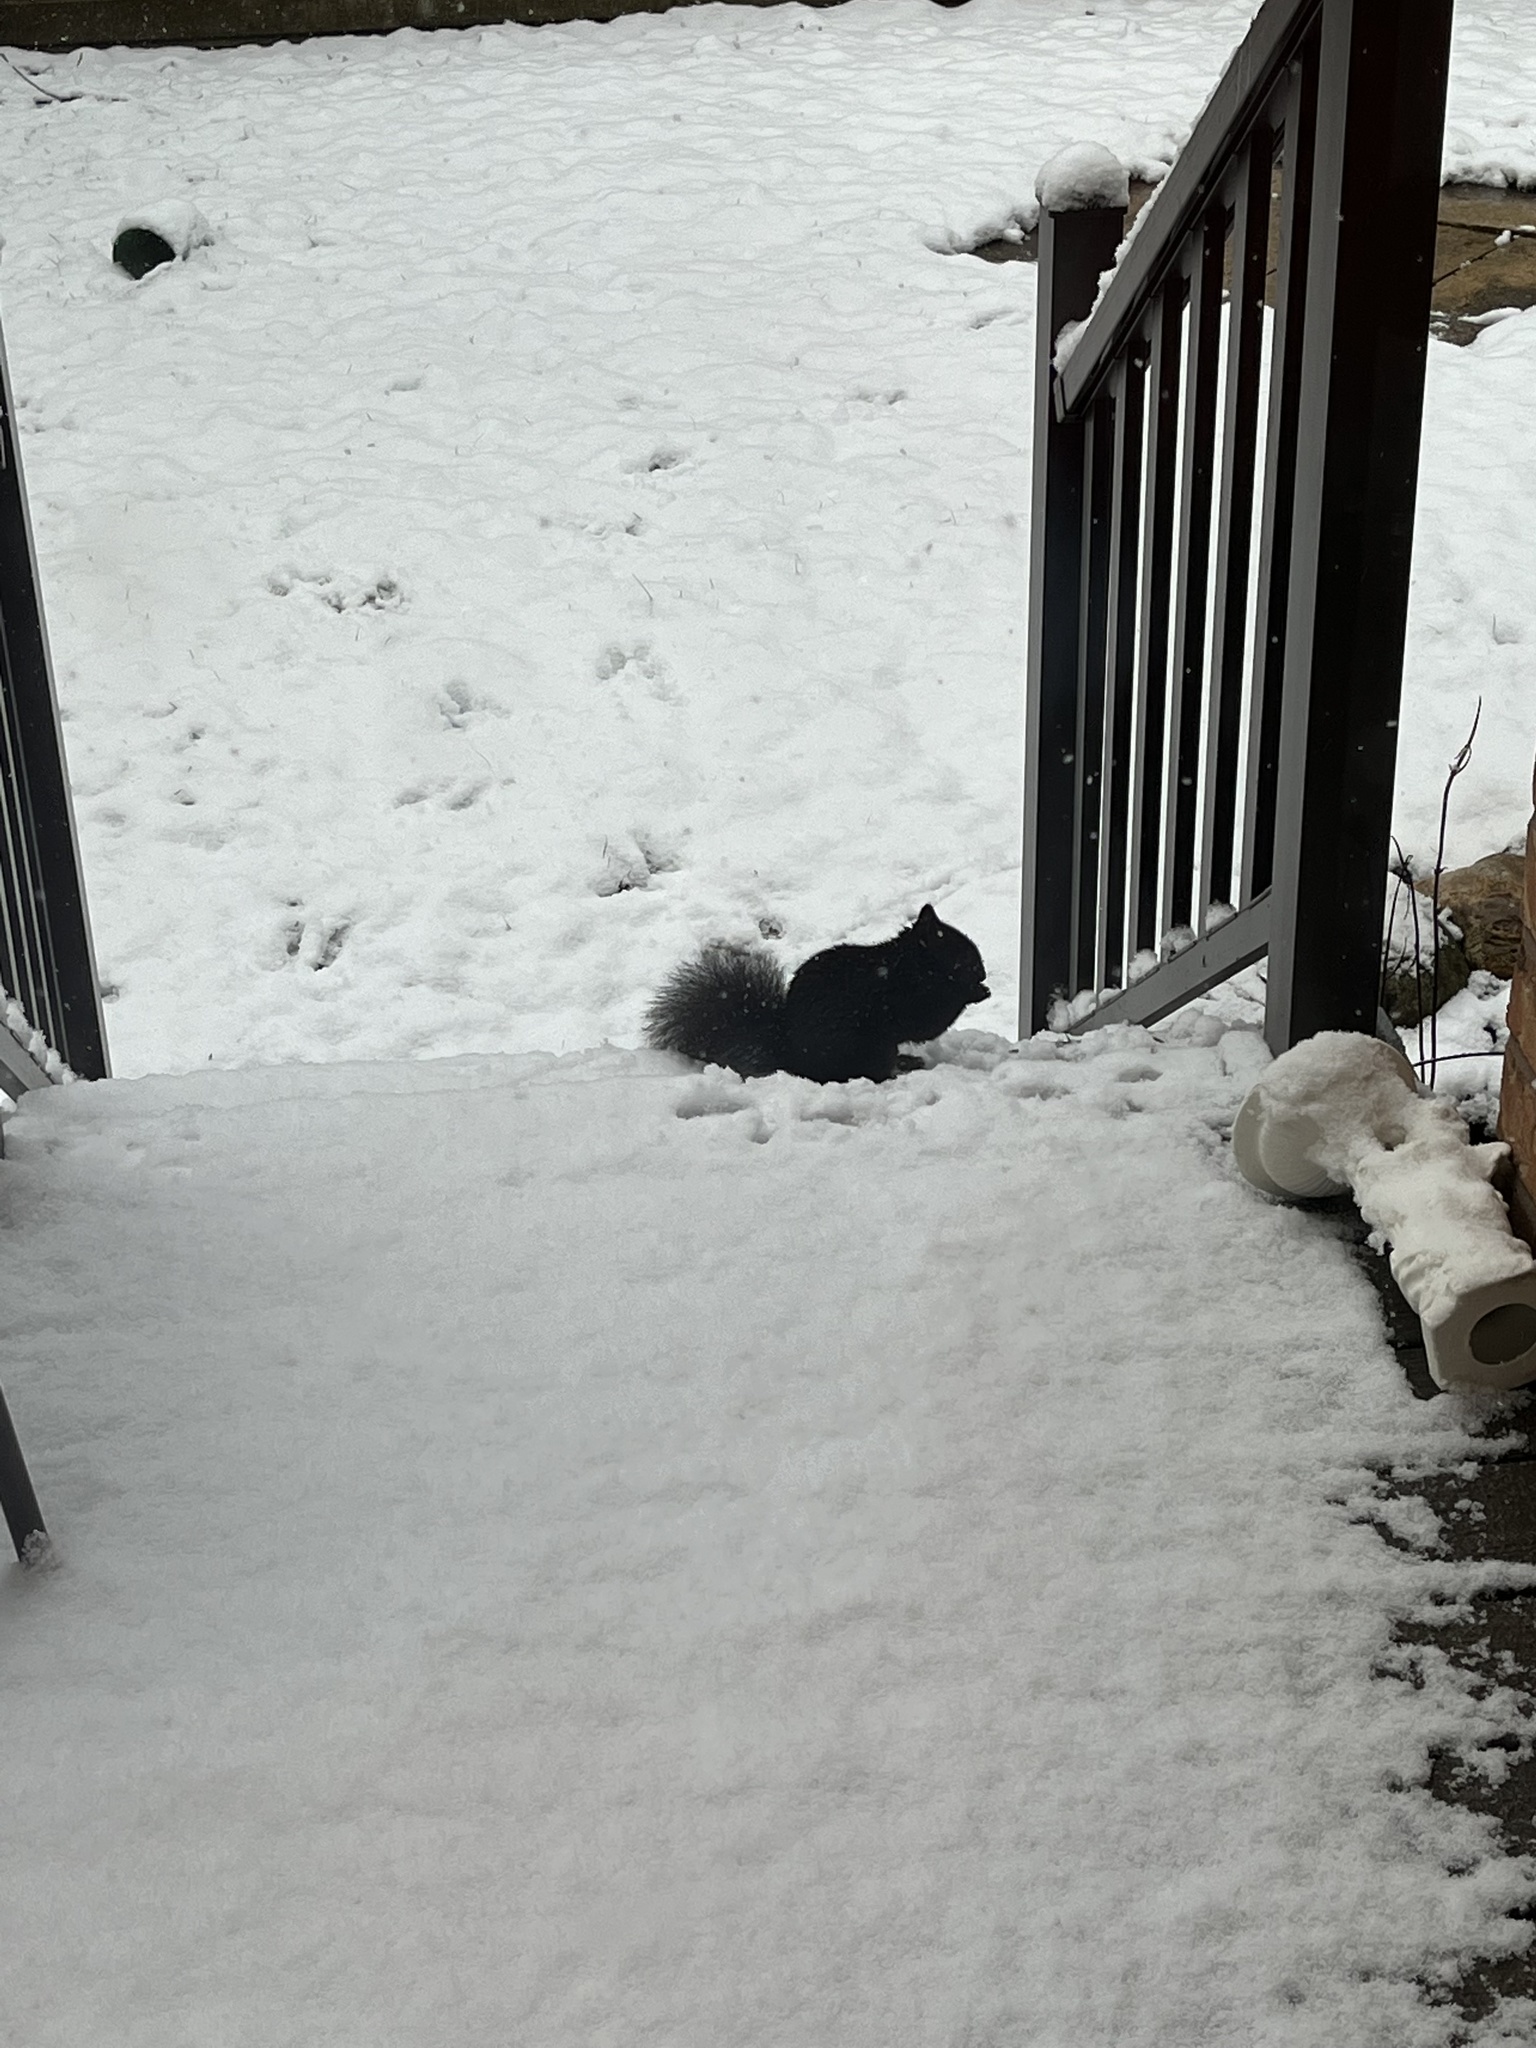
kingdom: Animalia
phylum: Chordata
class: Mammalia
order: Rodentia
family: Sciuridae
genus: Sciurus
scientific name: Sciurus carolinensis
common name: Eastern gray squirrel
